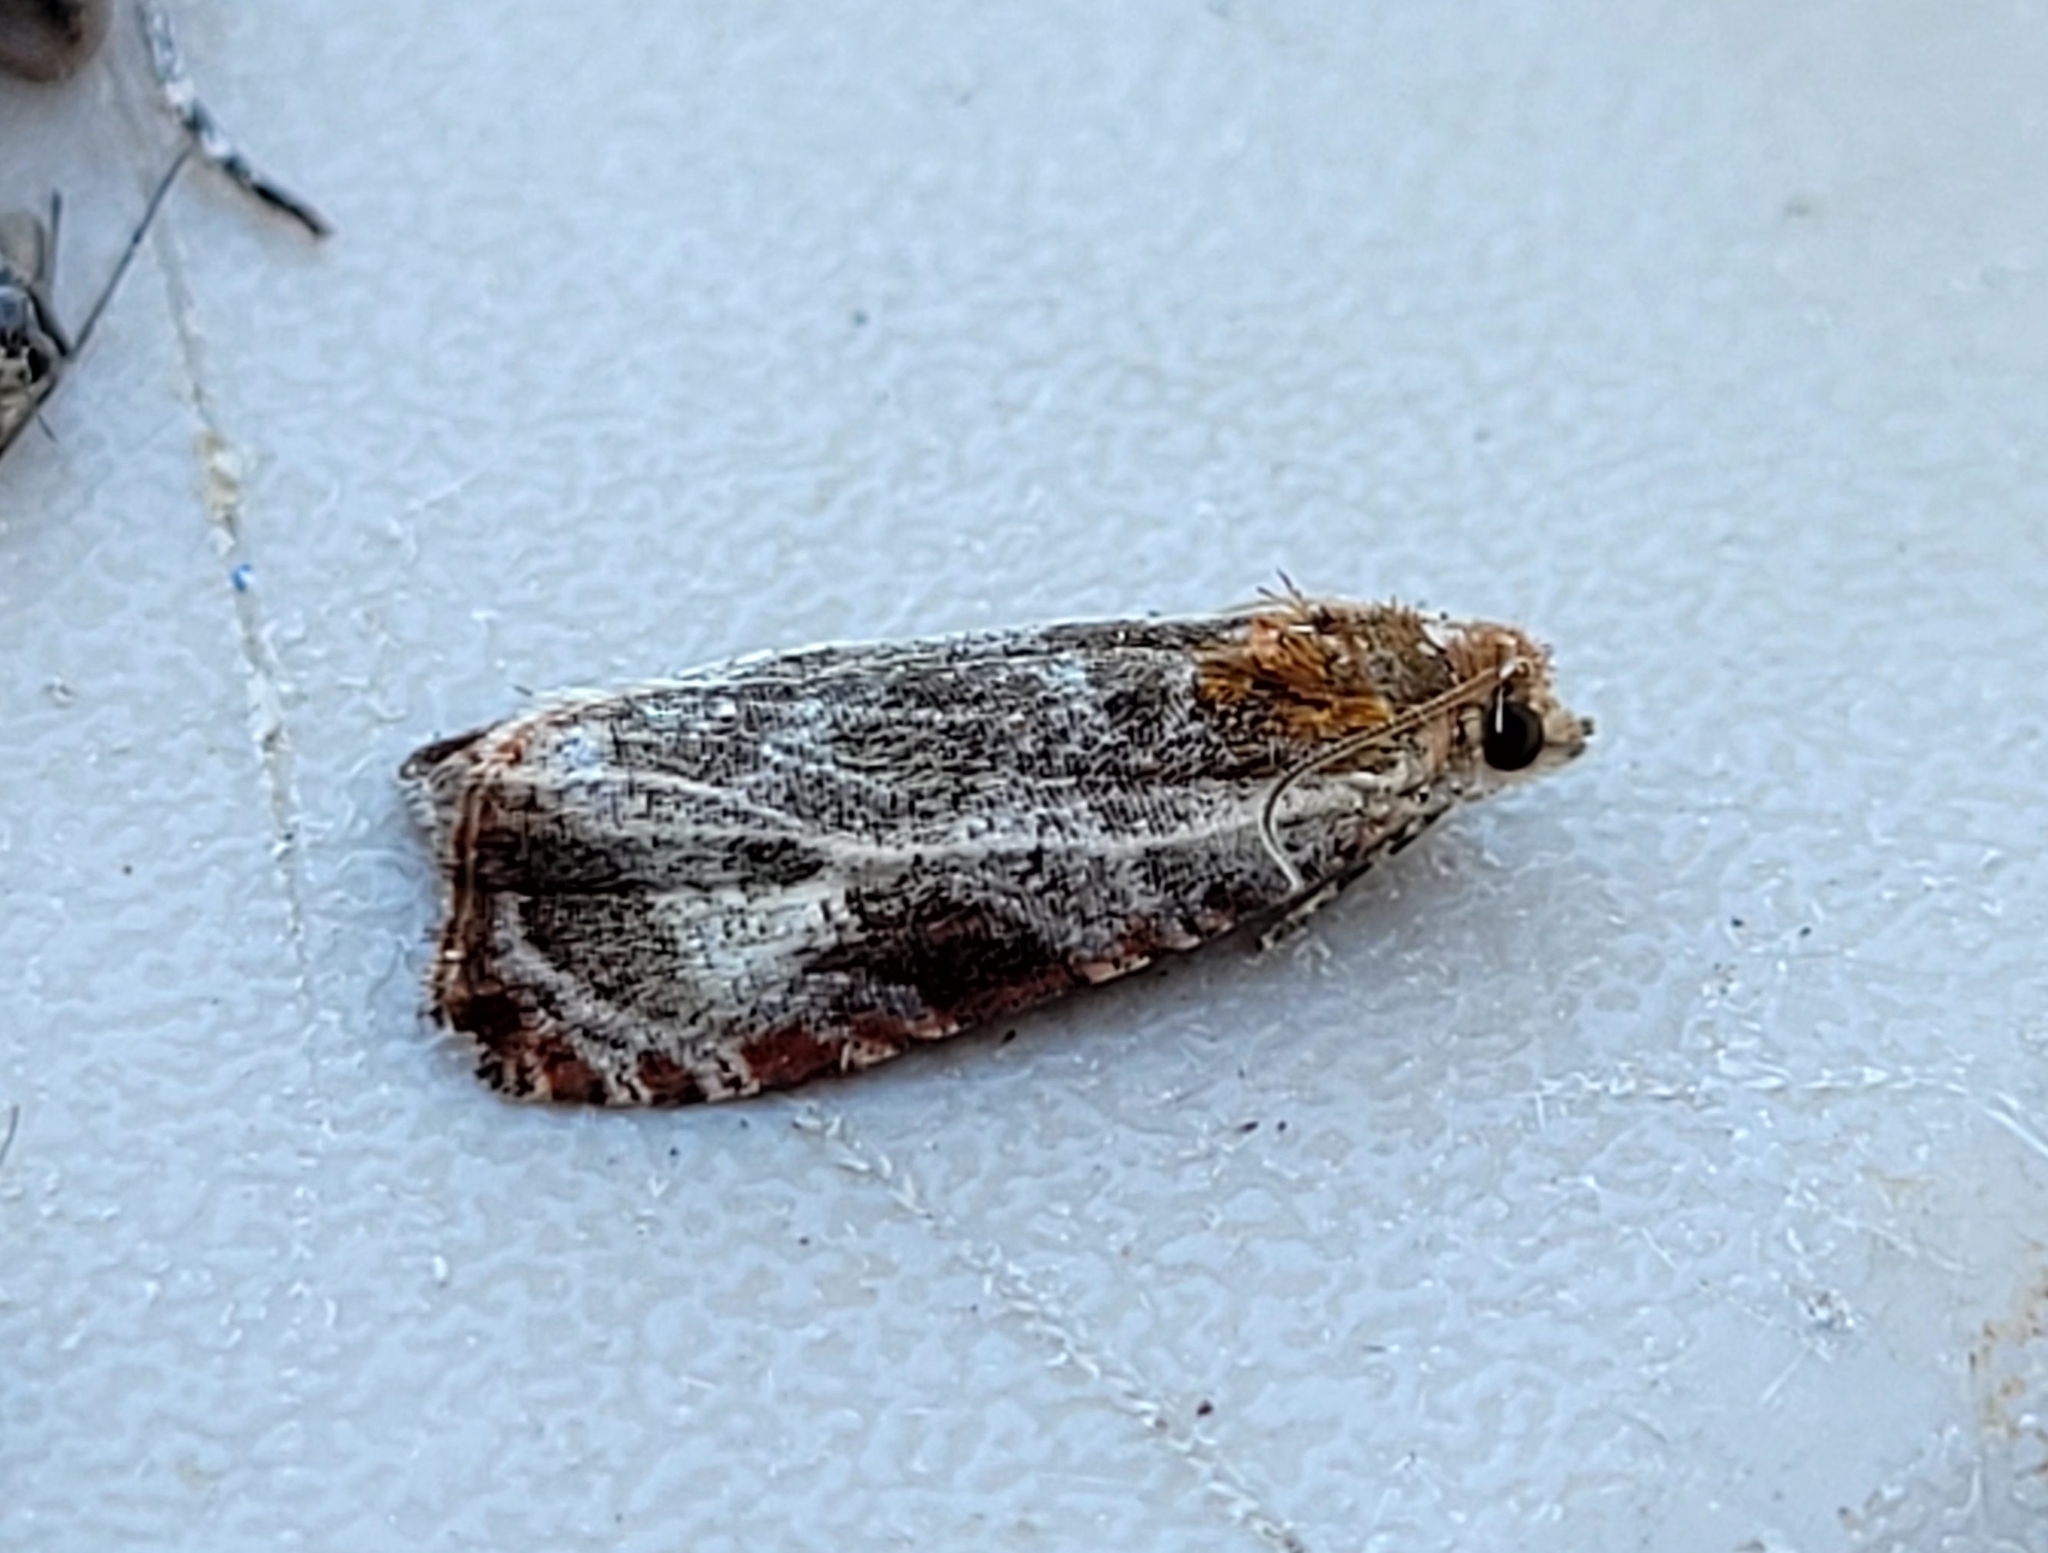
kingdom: Animalia
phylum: Arthropoda
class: Insecta
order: Lepidoptera
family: Tortricidae
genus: Olethreutes
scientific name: Olethreutes quadrifidum
